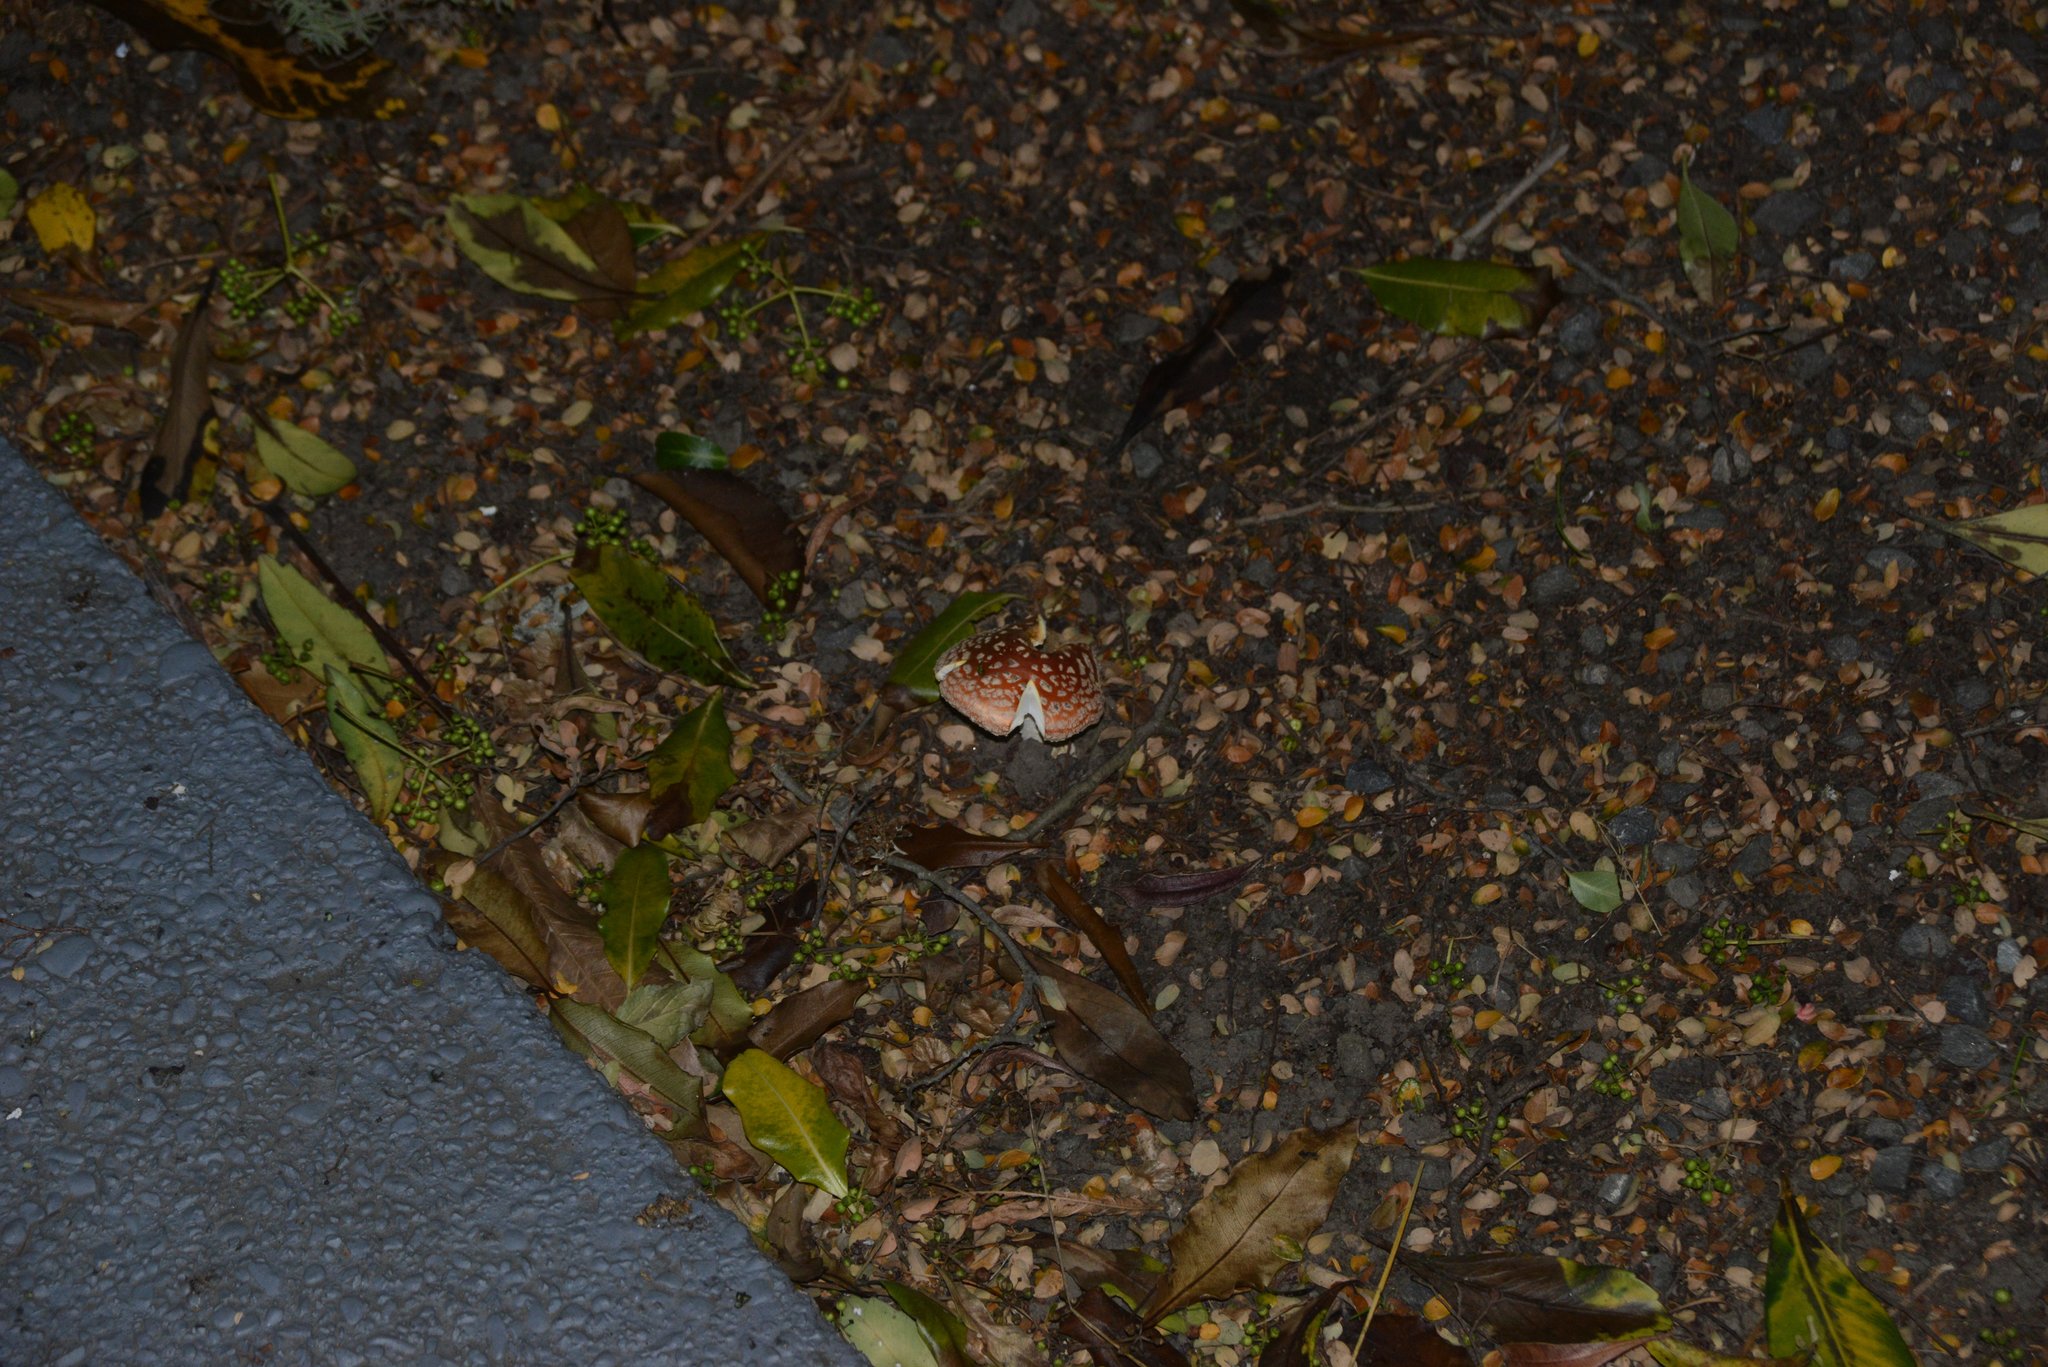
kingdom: Fungi
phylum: Basidiomycota
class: Agaricomycetes
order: Agaricales
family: Amanitaceae
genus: Amanita
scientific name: Amanita muscaria
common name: Fly agaric
